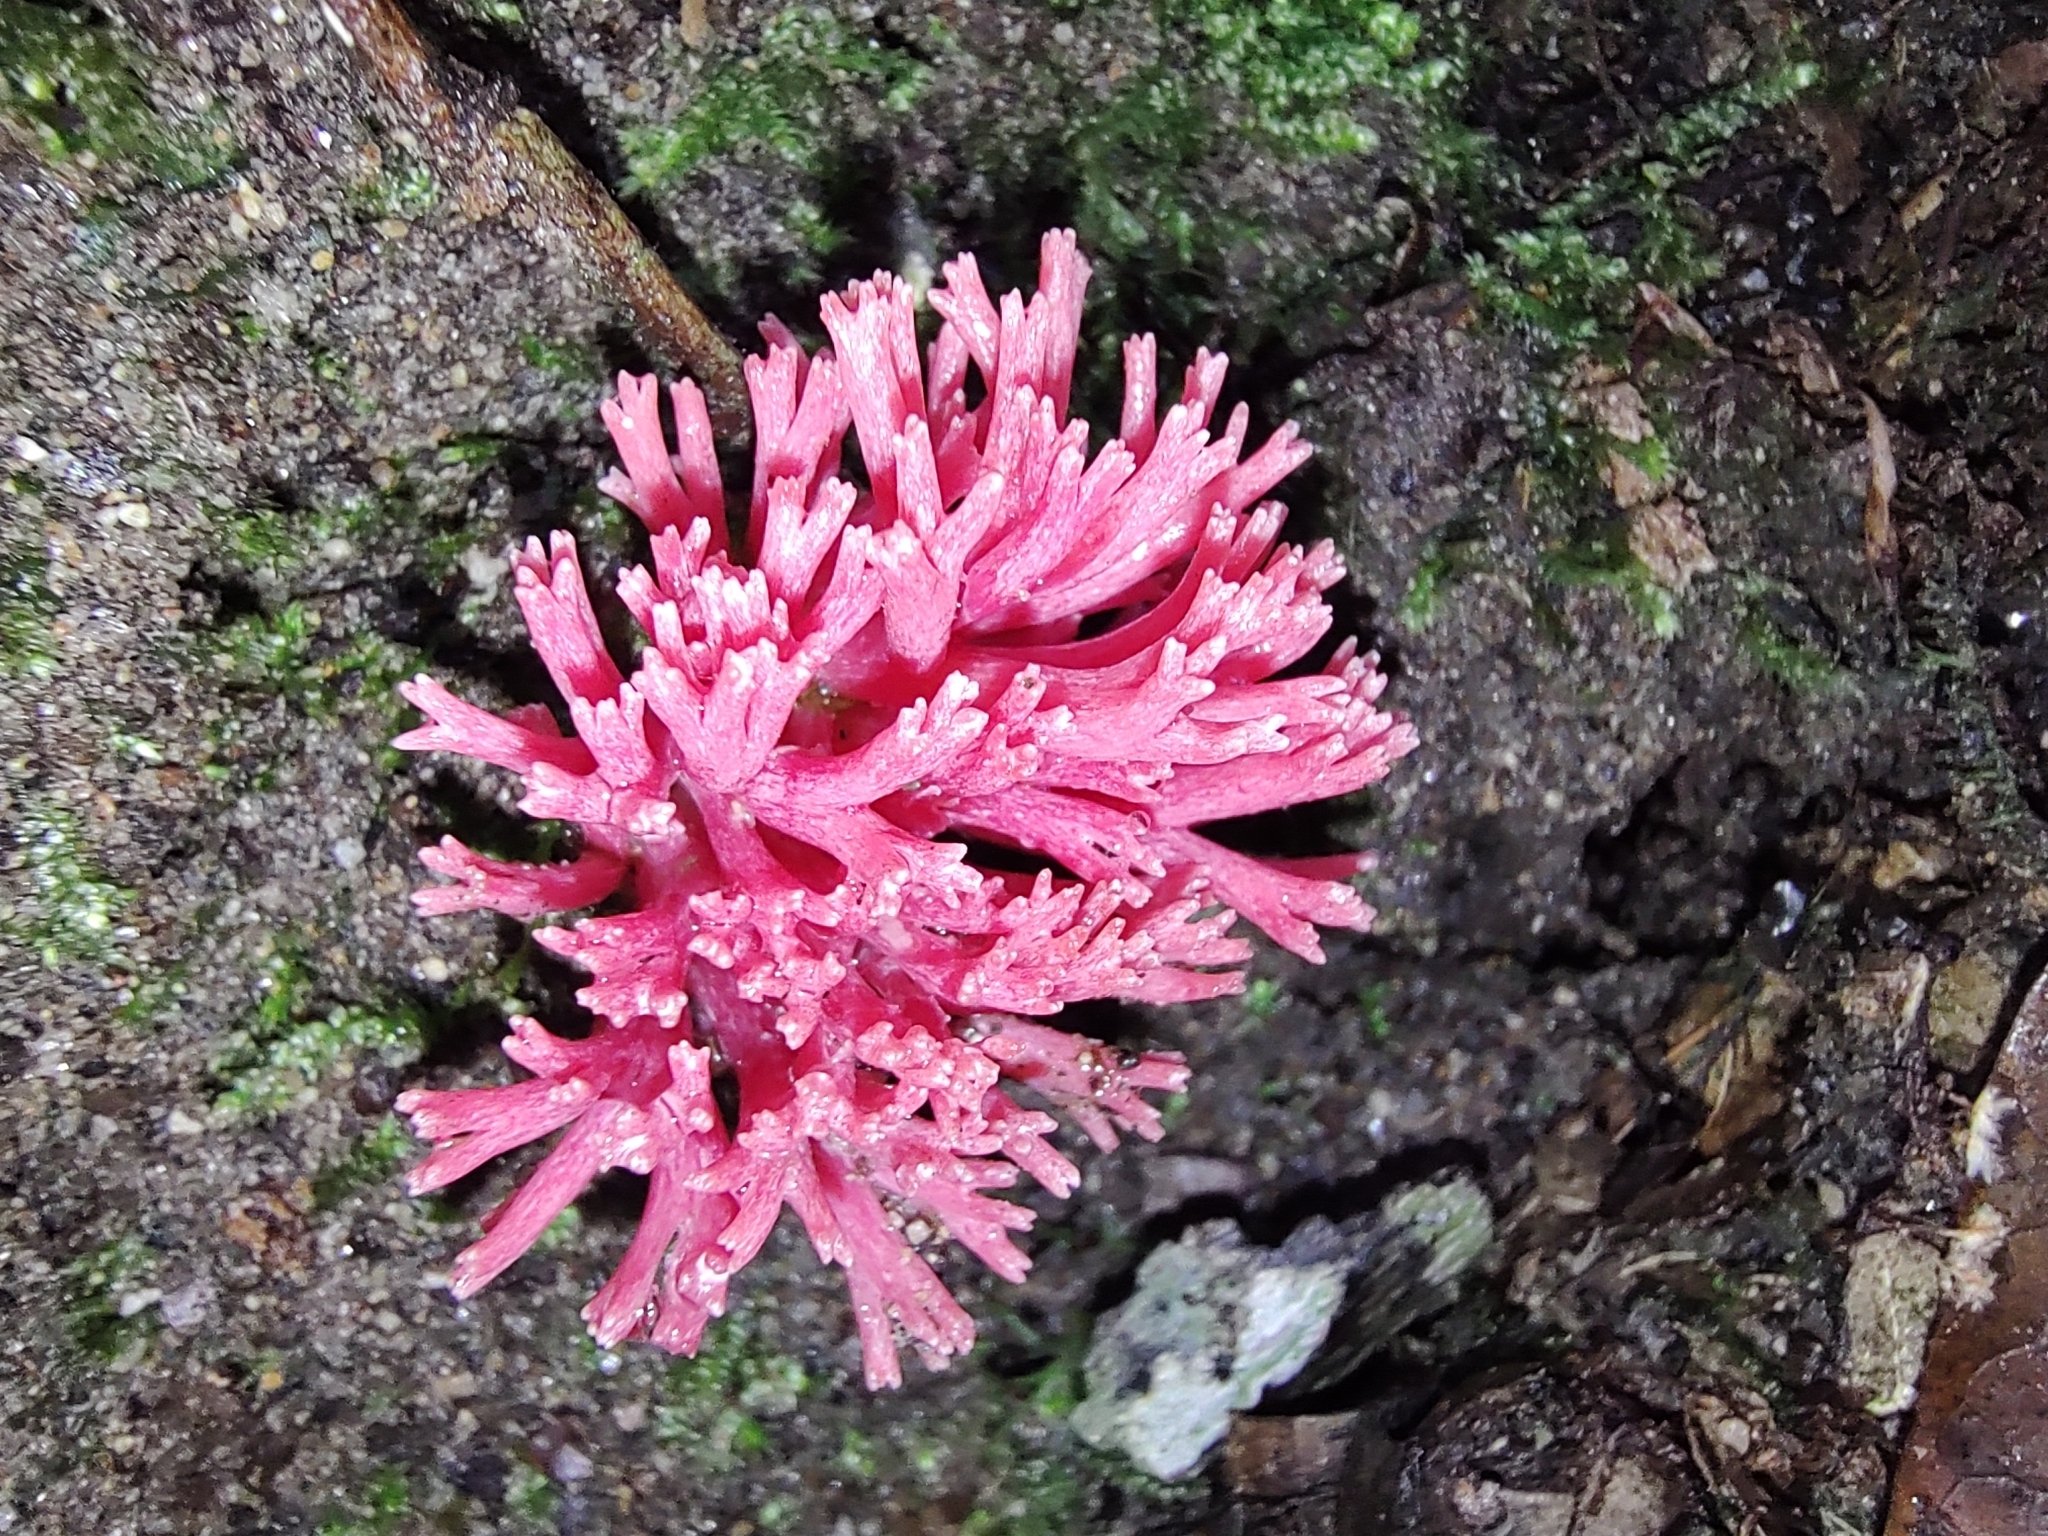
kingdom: Fungi
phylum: Basidiomycota
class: Agaricomycetes
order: Gomphales
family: Gomphaceae
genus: Ramaria
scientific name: Ramaria araiospora
